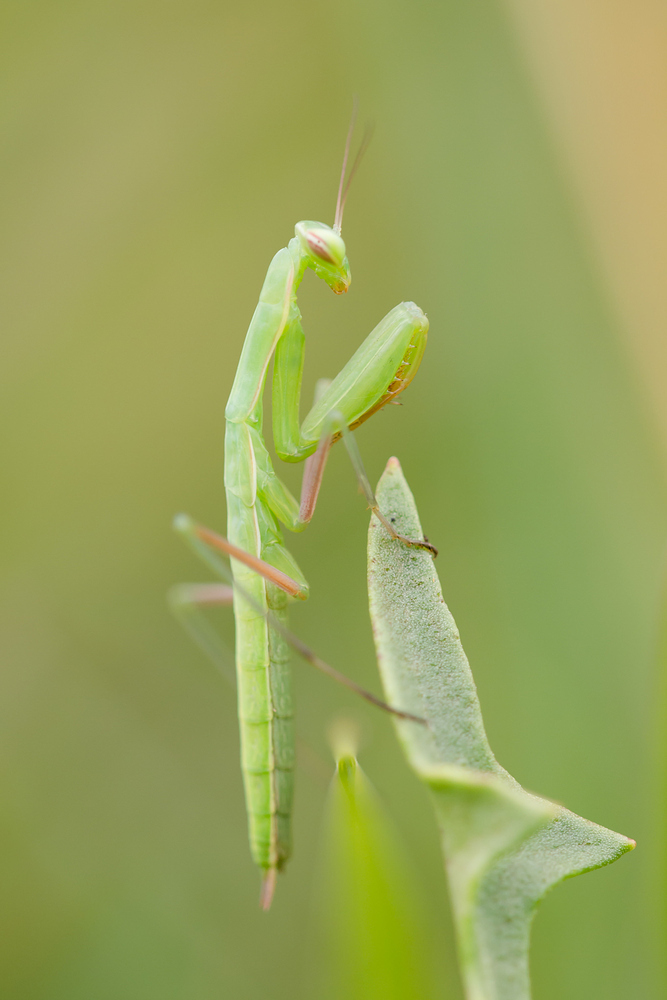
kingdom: Animalia
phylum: Arthropoda
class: Insecta
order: Mantodea
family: Mantidae
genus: Mantis
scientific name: Mantis religiosa
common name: Praying mantis
